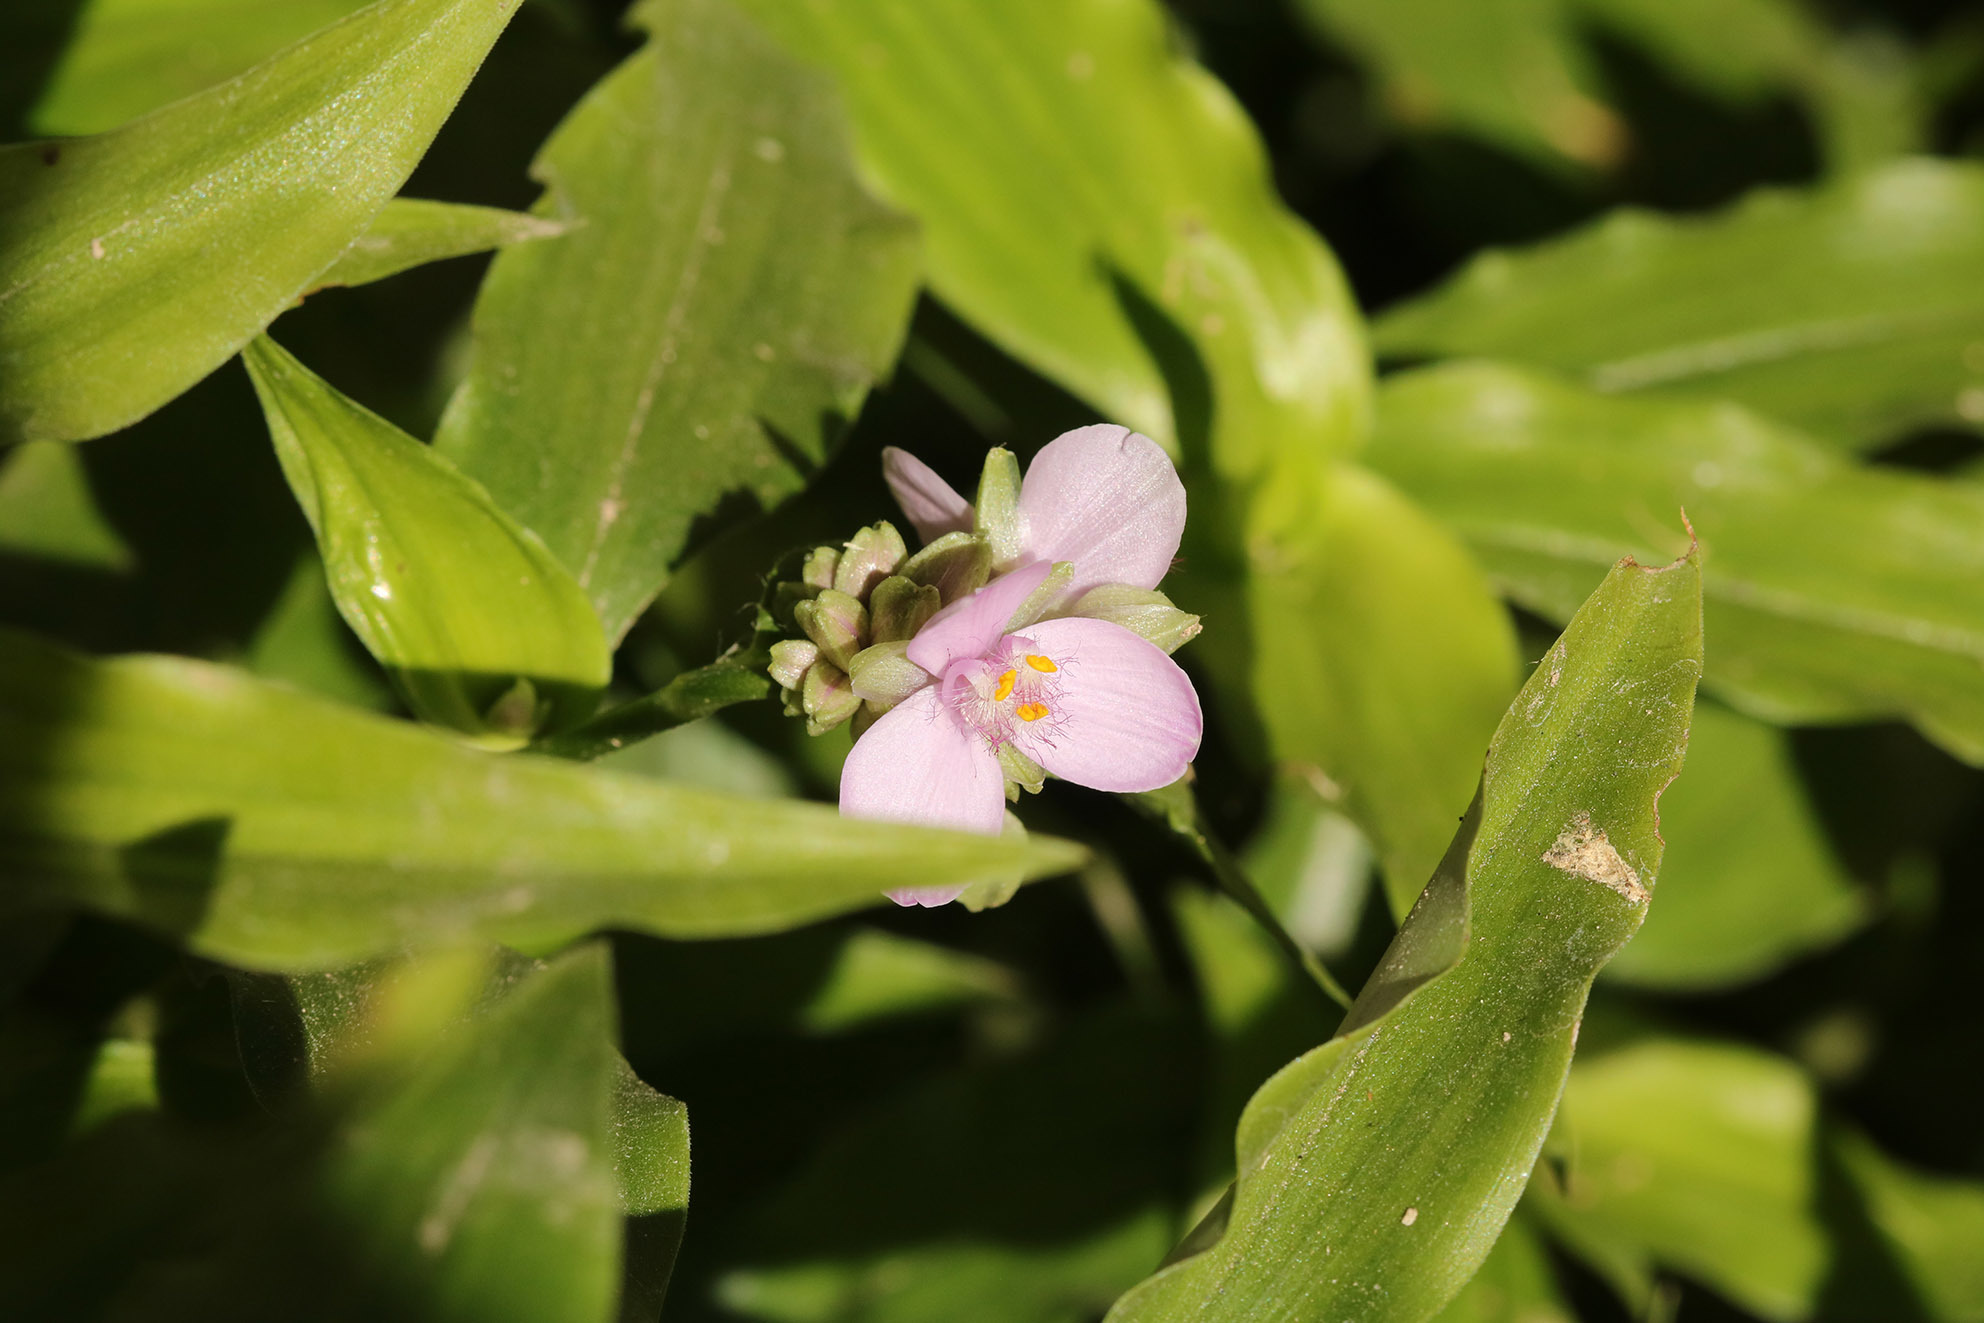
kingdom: Plantae
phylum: Tracheophyta
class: Liliopsida
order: Commelinales
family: Commelinaceae
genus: Callisia
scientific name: Callisia diuretica
